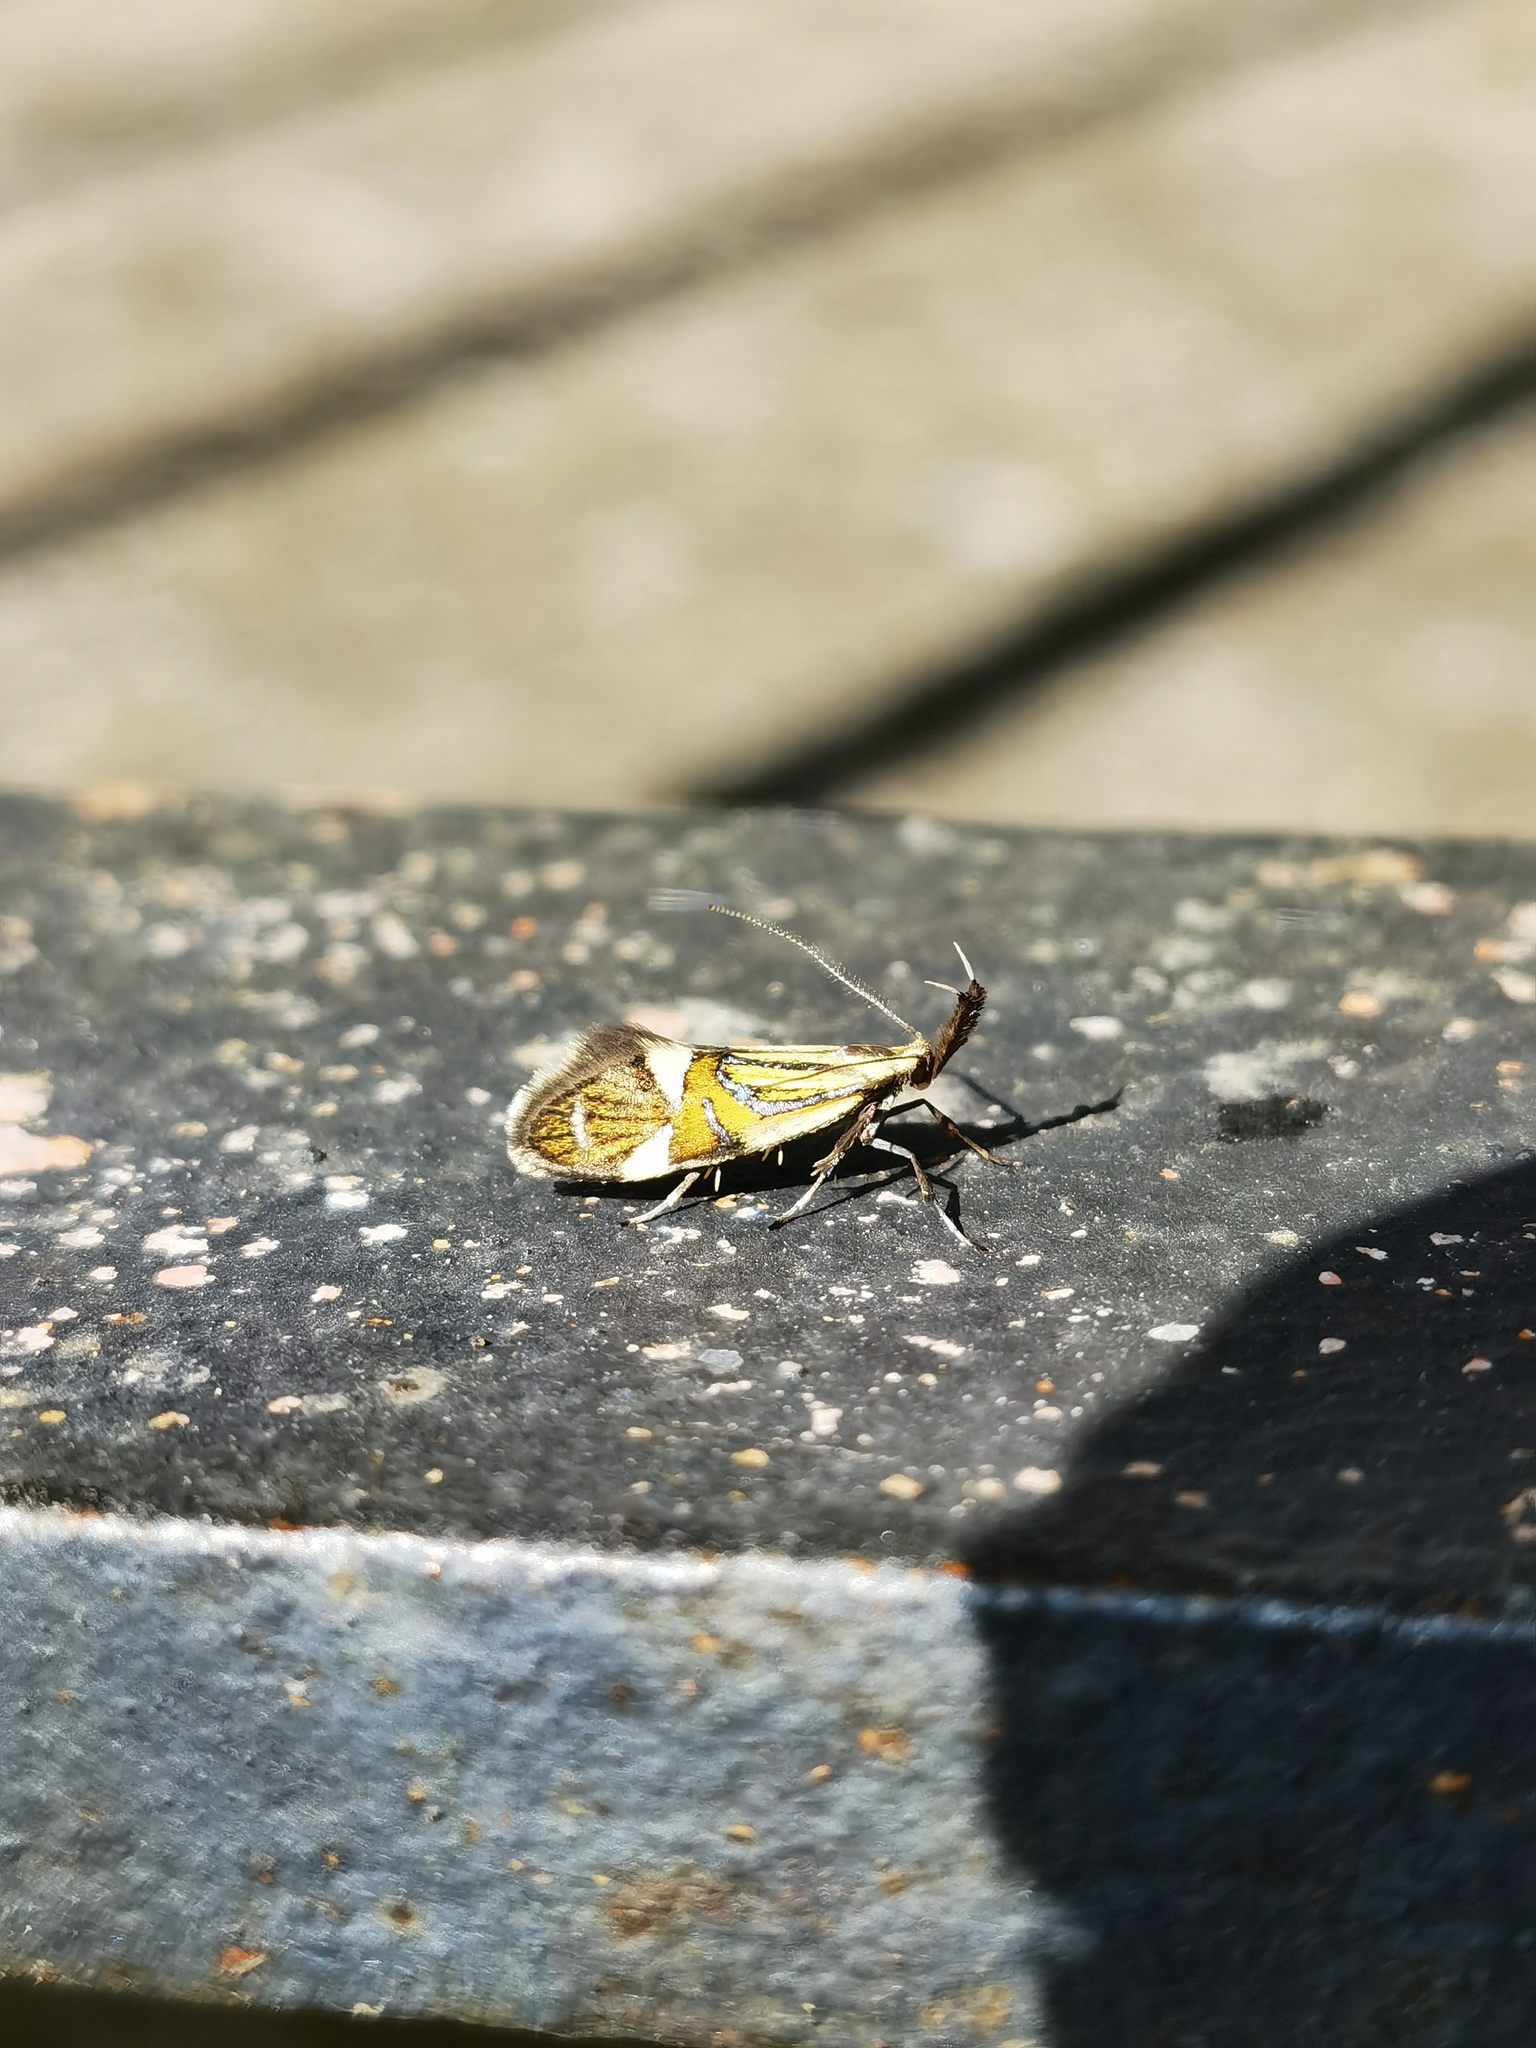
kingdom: Animalia
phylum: Arthropoda
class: Insecta
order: Lepidoptera
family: Oecophoridae
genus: Oecophora
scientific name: Oecophora Alabonia geoffrella
